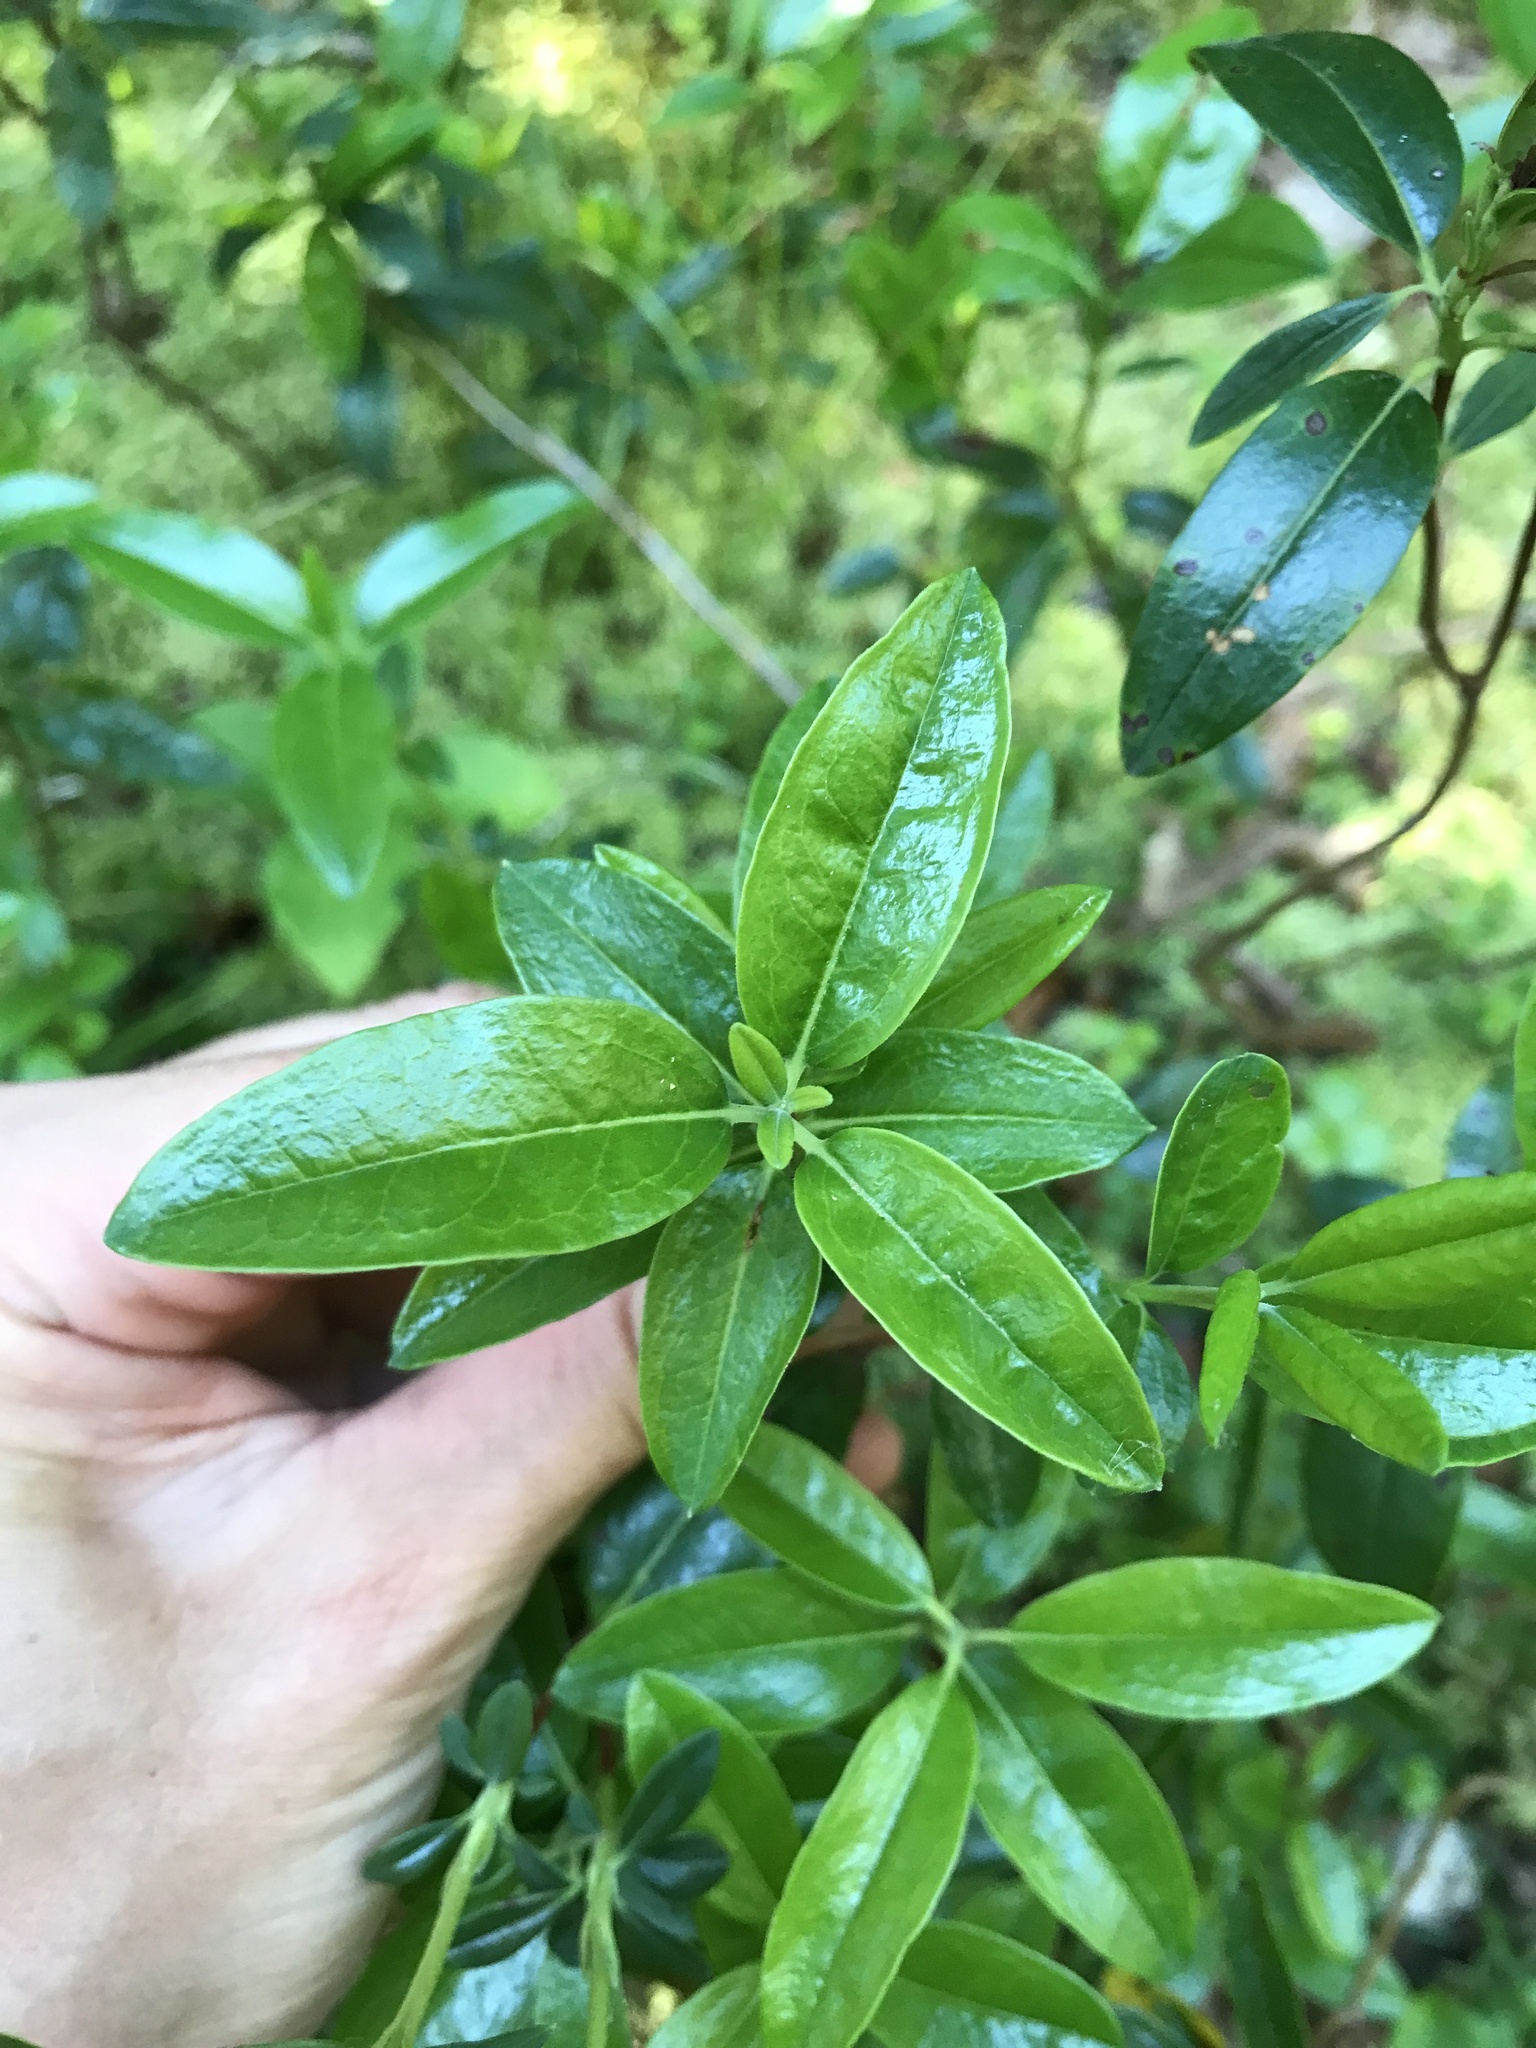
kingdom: Plantae
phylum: Tracheophyta
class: Magnoliopsida
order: Ericales
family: Ericaceae
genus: Kalmia
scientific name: Kalmia angustifolia
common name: Sheep-laurel
